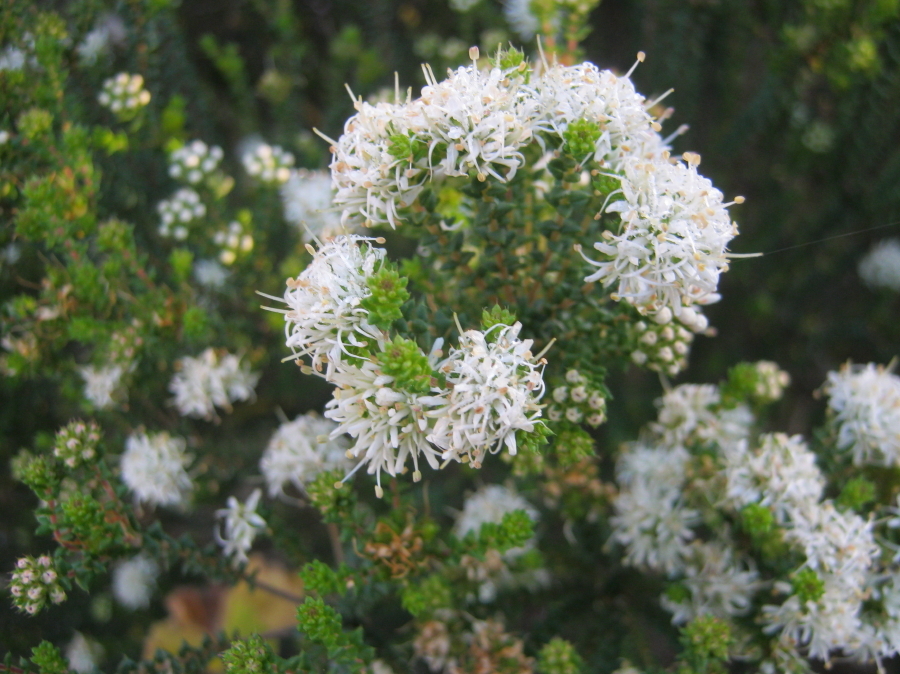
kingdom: Plantae
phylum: Tracheophyta
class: Magnoliopsida
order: Sapindales
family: Rutaceae
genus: Agathosma
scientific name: Agathosma apiculata
